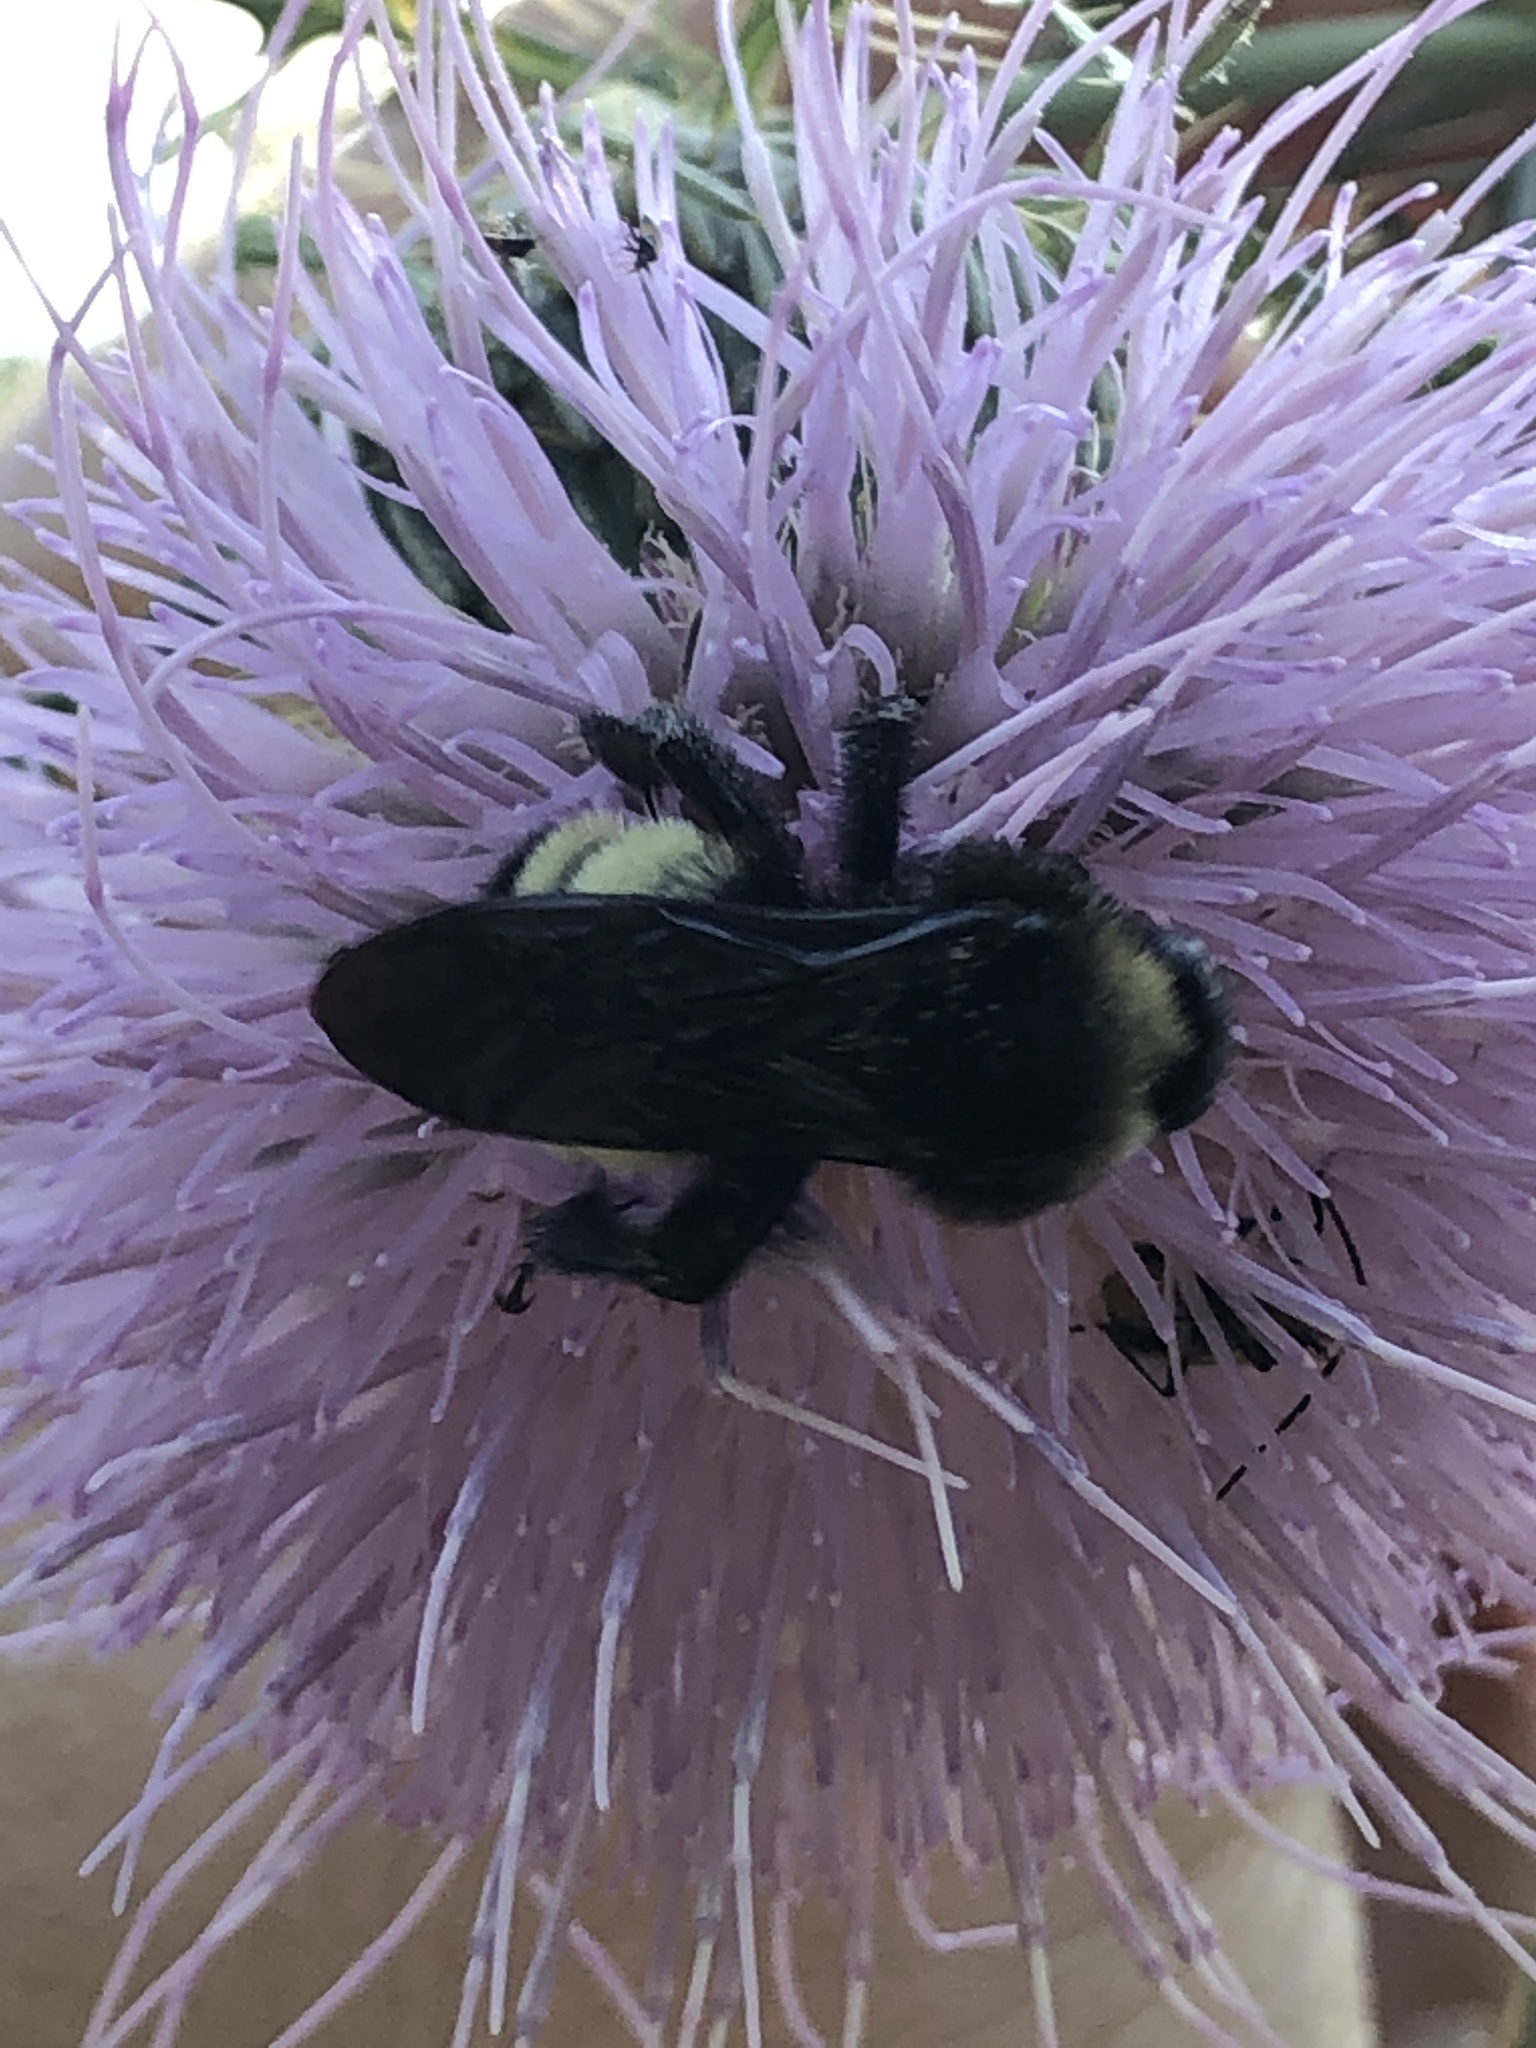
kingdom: Animalia
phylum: Arthropoda
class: Insecta
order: Hymenoptera
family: Apidae
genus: Bombus
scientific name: Bombus pensylvanicus
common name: Bumble bee
